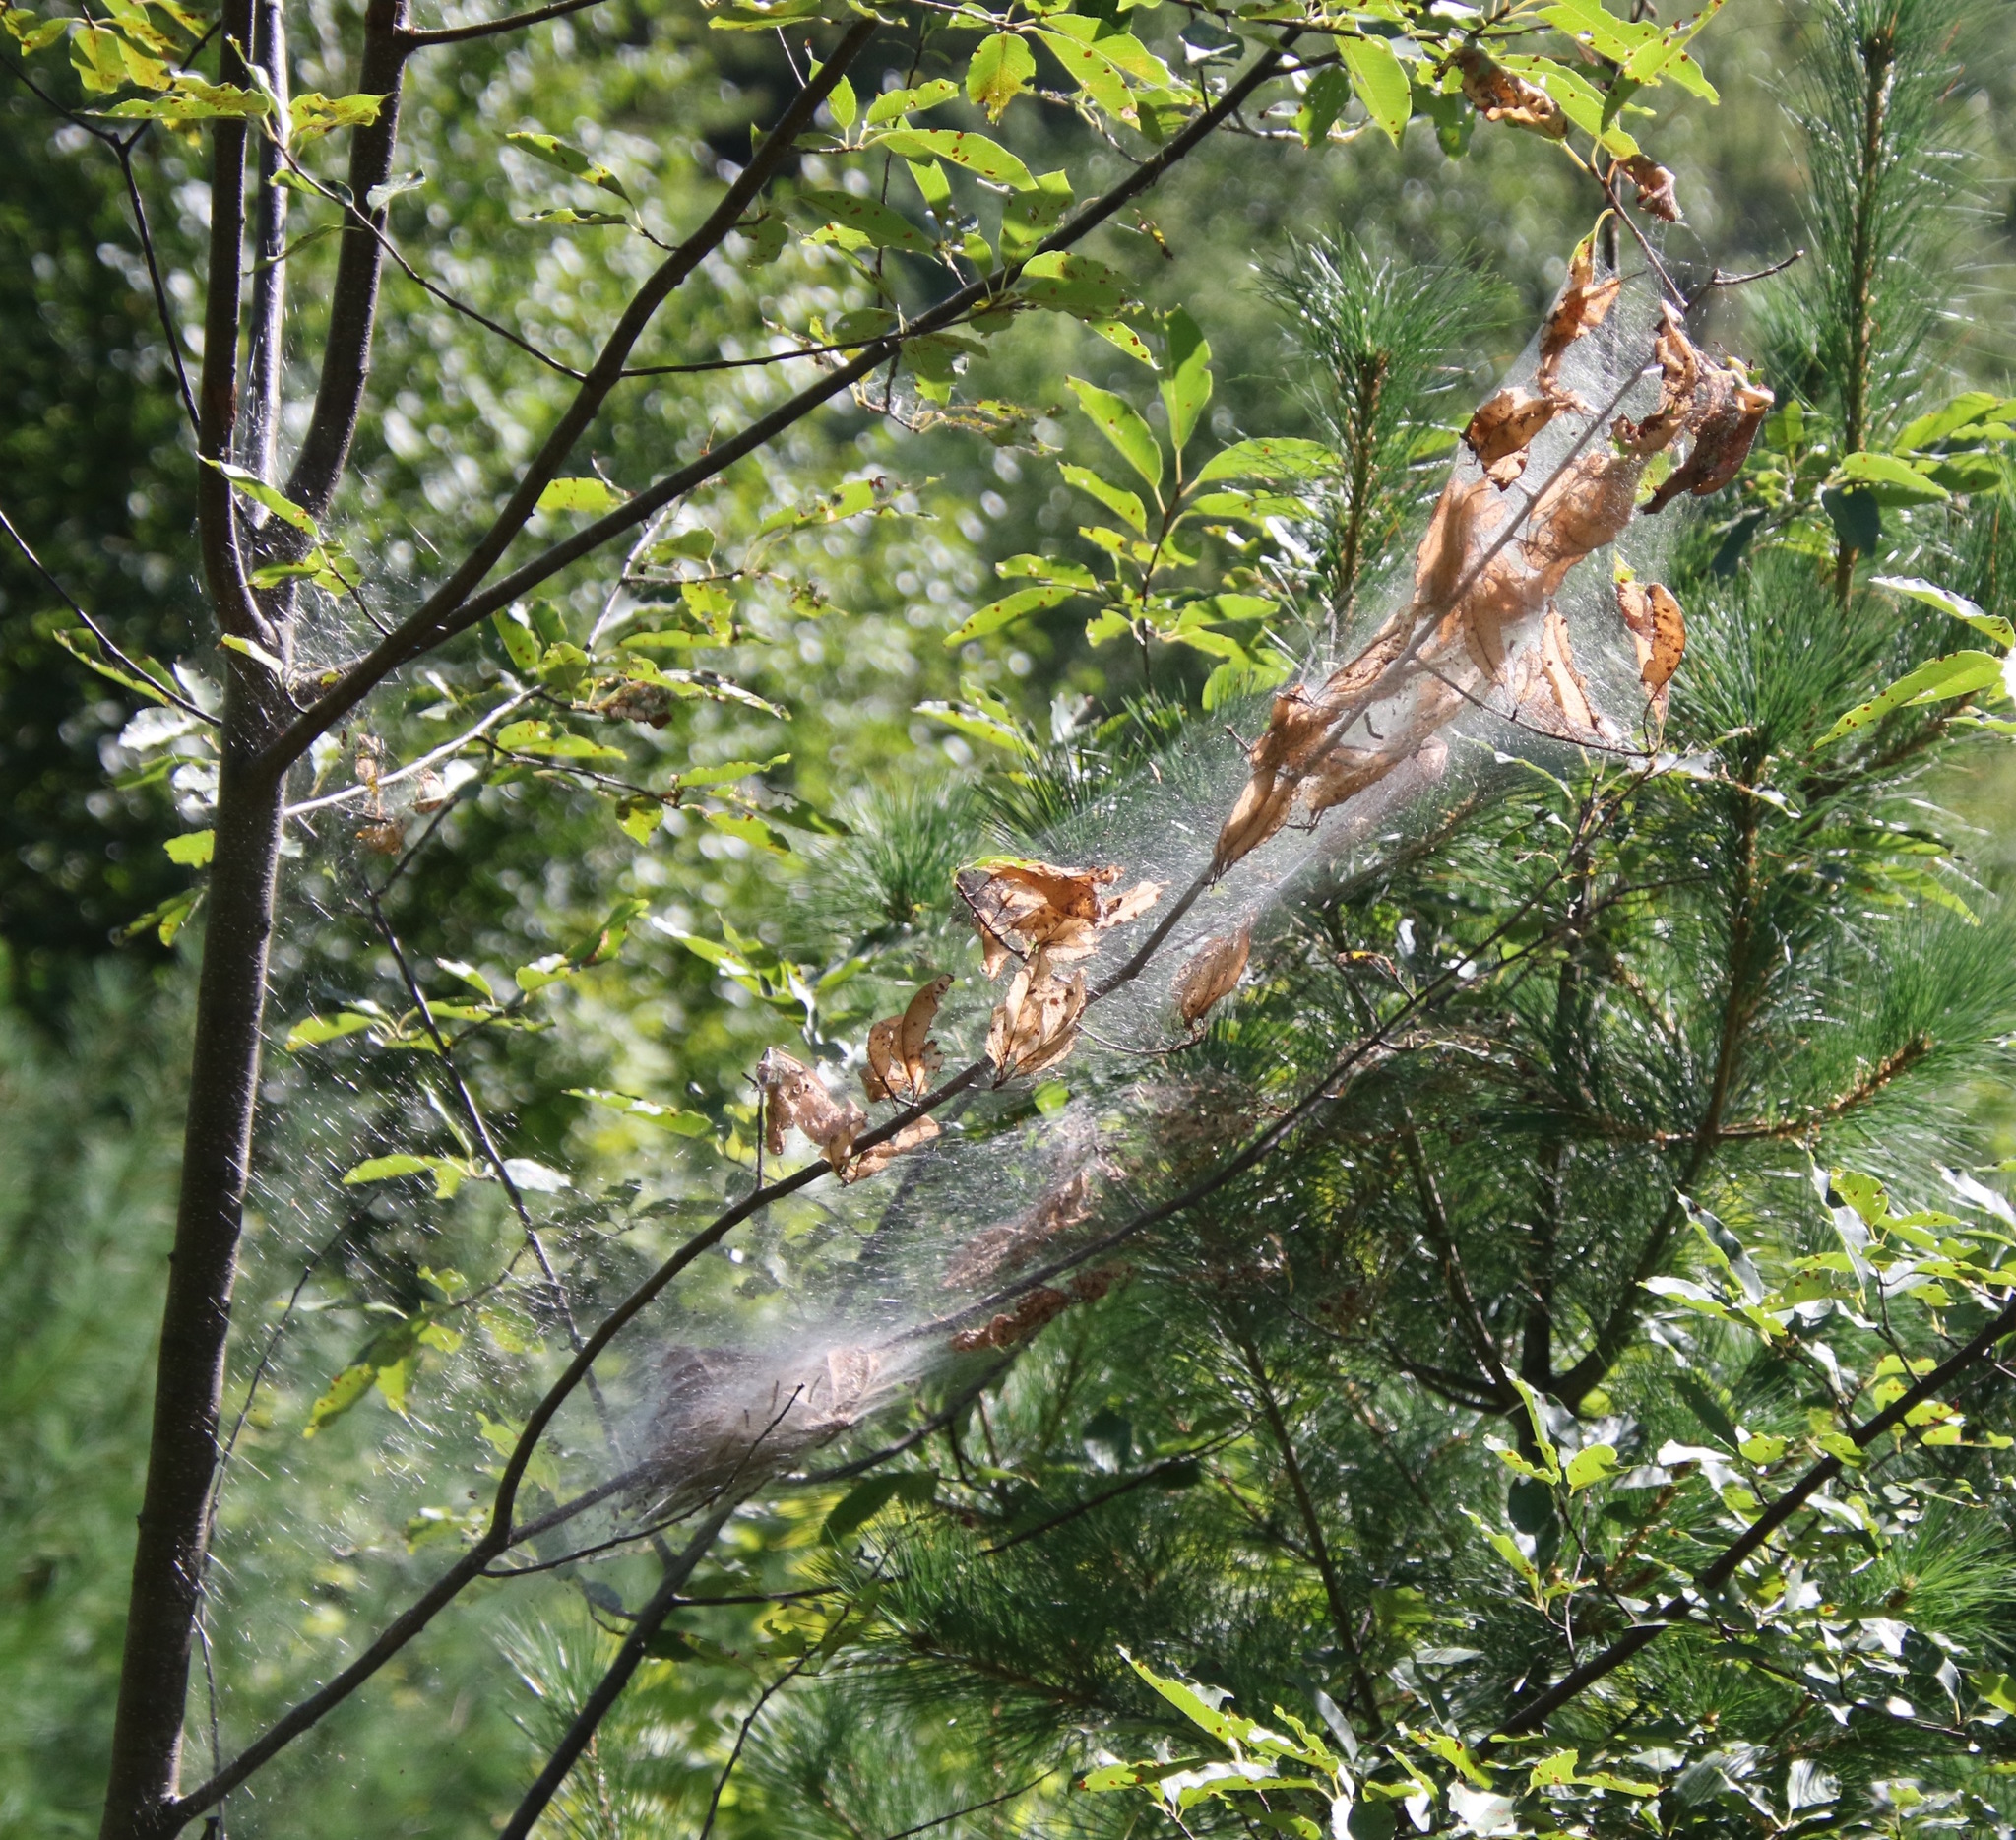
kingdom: Animalia
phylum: Arthropoda
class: Insecta
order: Lepidoptera
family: Erebidae
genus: Hyphantria
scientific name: Hyphantria cunea
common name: American white moth
